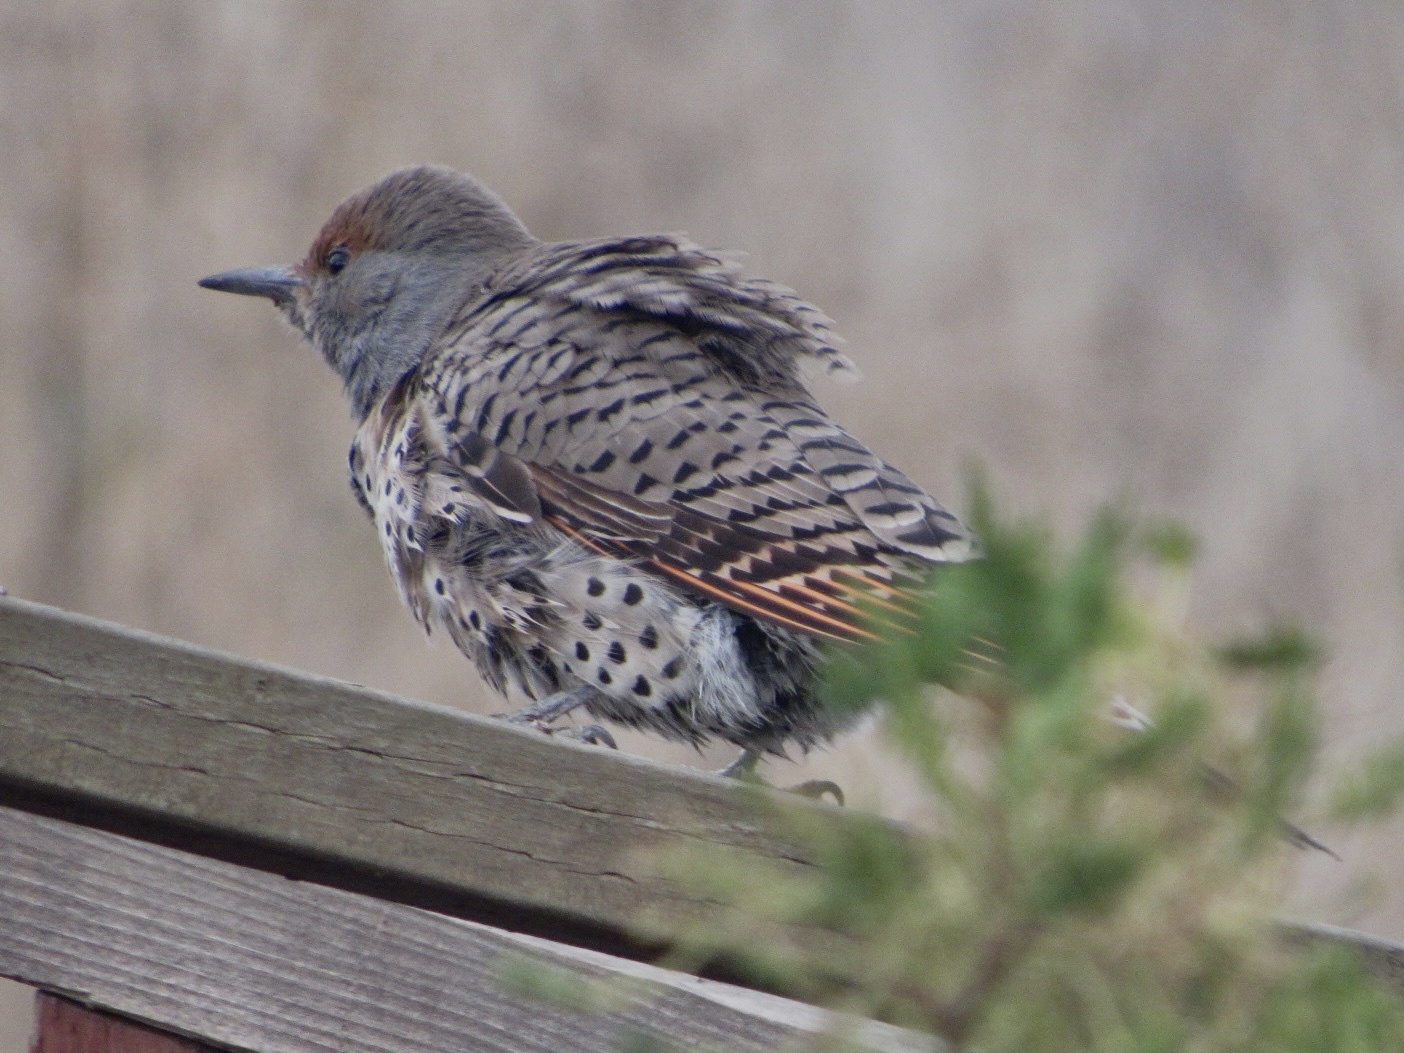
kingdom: Animalia
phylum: Chordata
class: Aves
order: Piciformes
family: Picidae
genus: Colaptes
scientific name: Colaptes auratus
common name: Northern flicker
